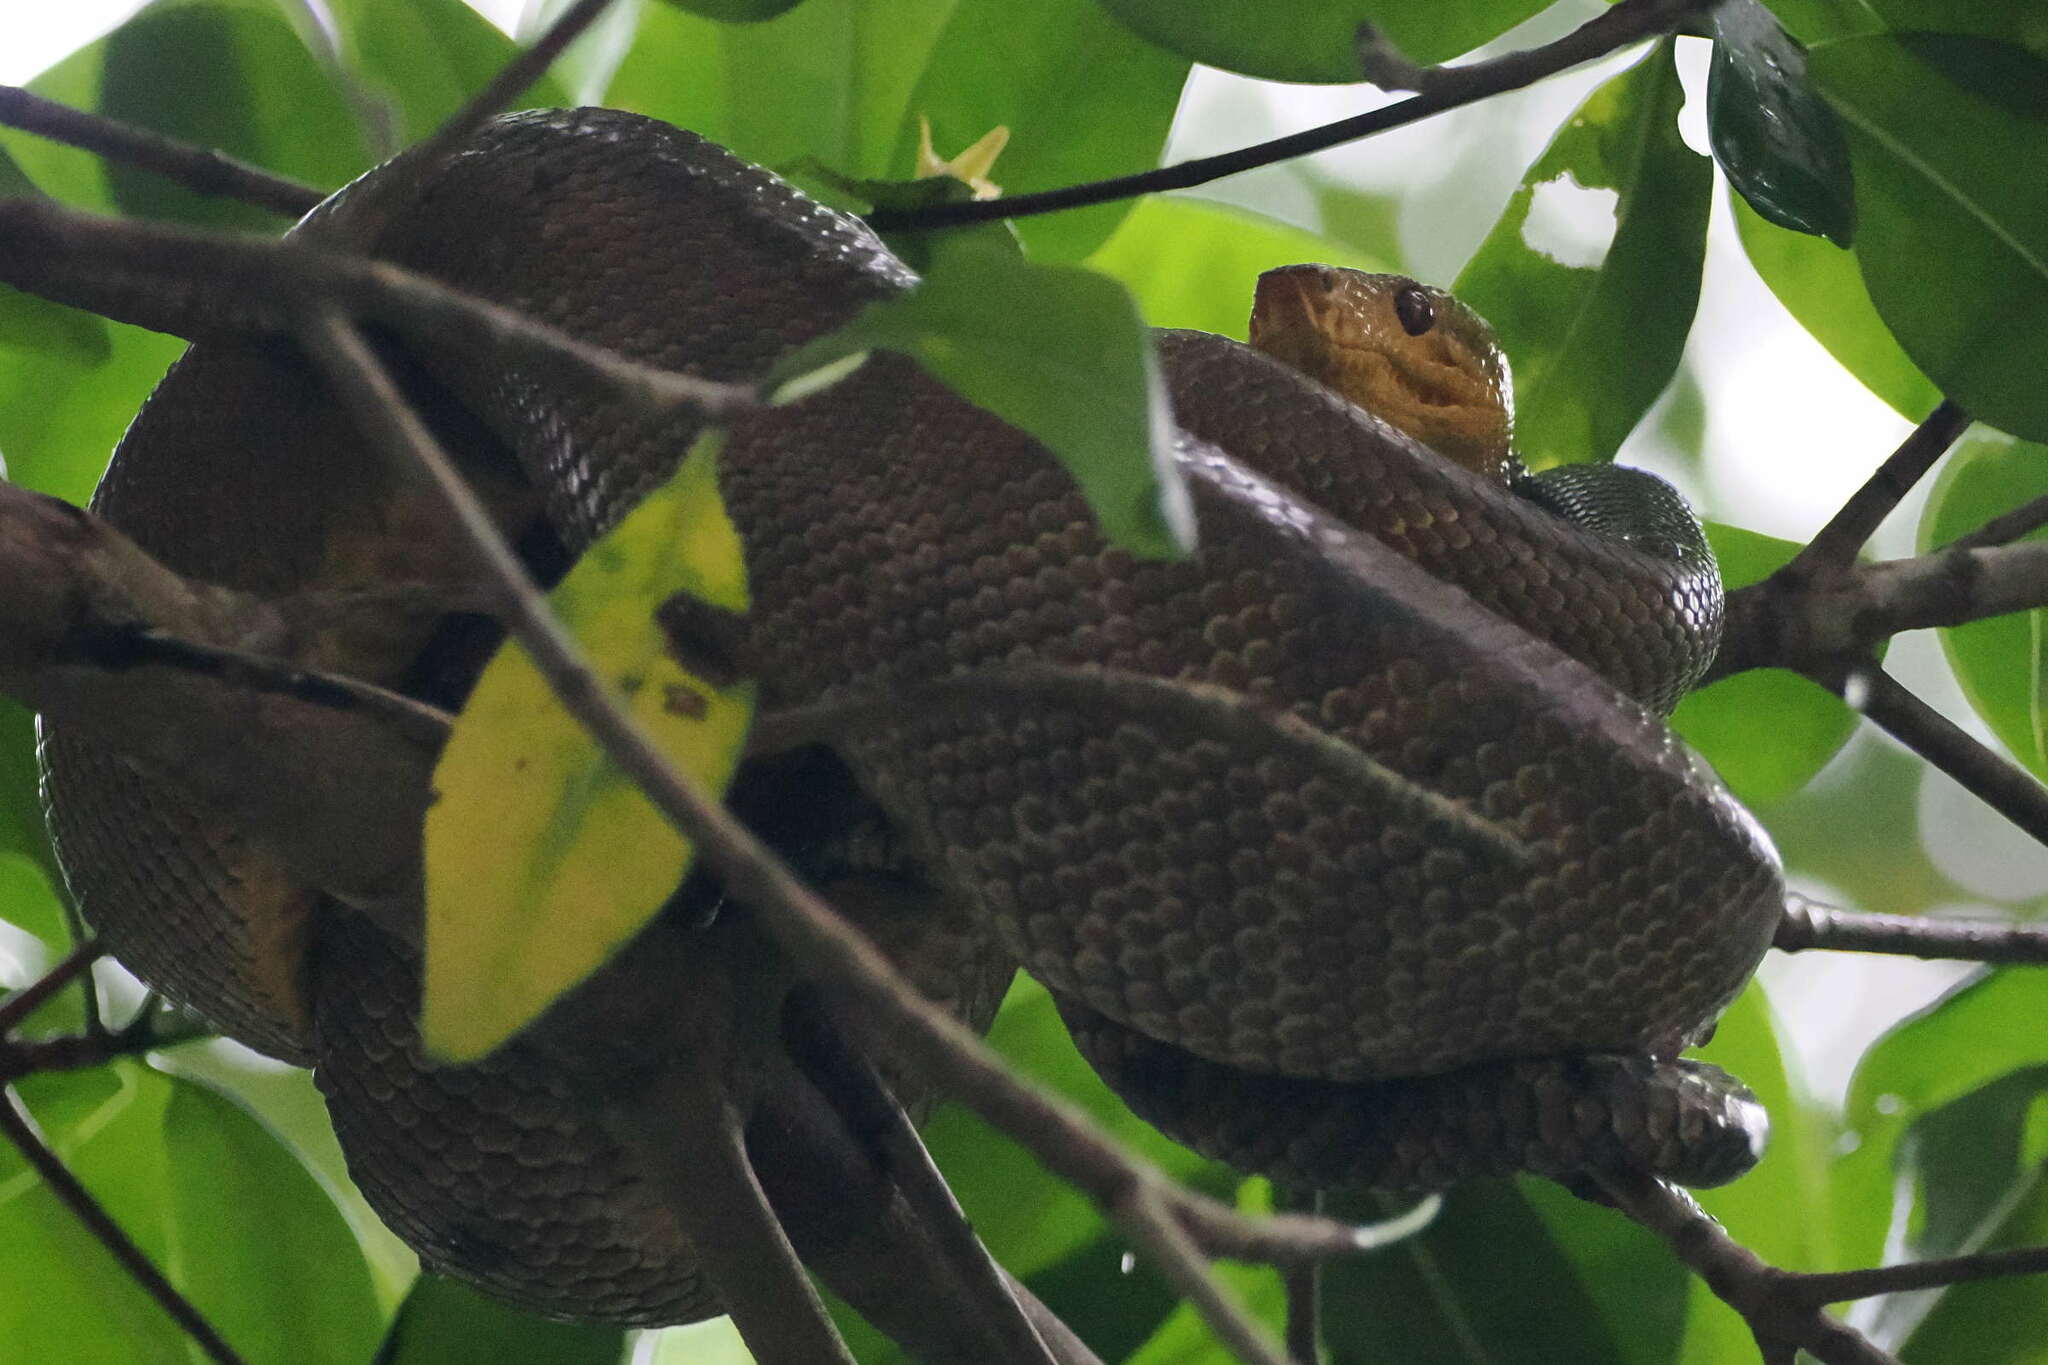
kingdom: Animalia
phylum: Chordata
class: Squamata
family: Boidae
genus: Corallus
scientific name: Corallus ruschenbergerii
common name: Dormilona
